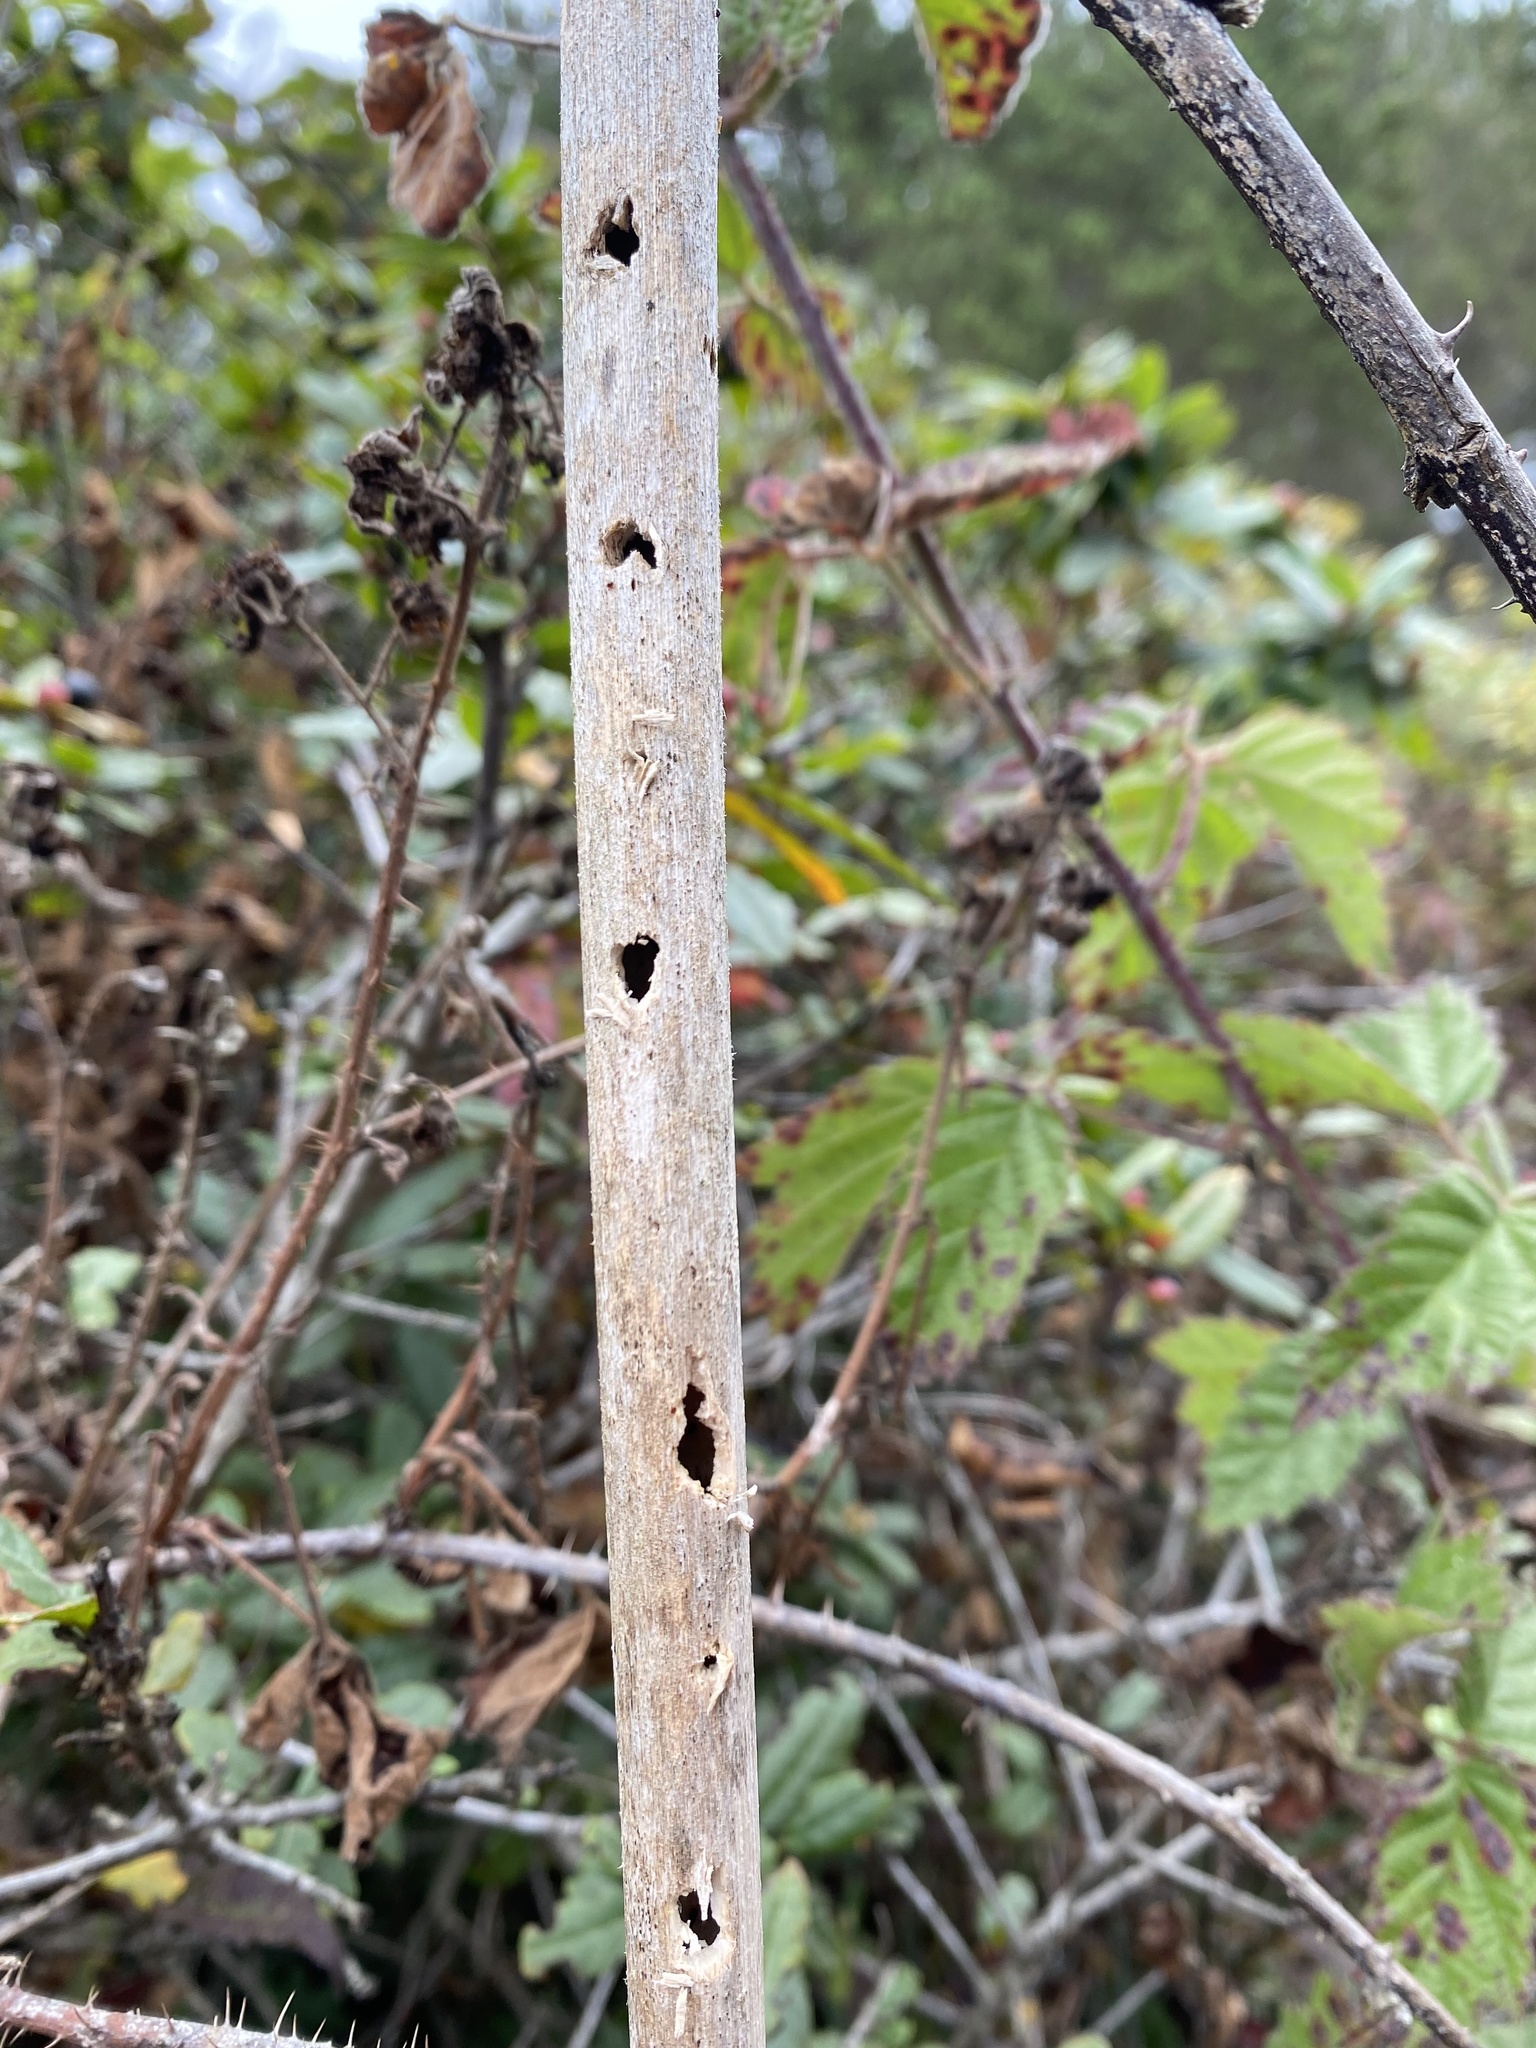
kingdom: Animalia
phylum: Chordata
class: Aves
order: Piciformes
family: Picidae
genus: Dryobates
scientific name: Dryobates pubescens
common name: Downy woodpecker
